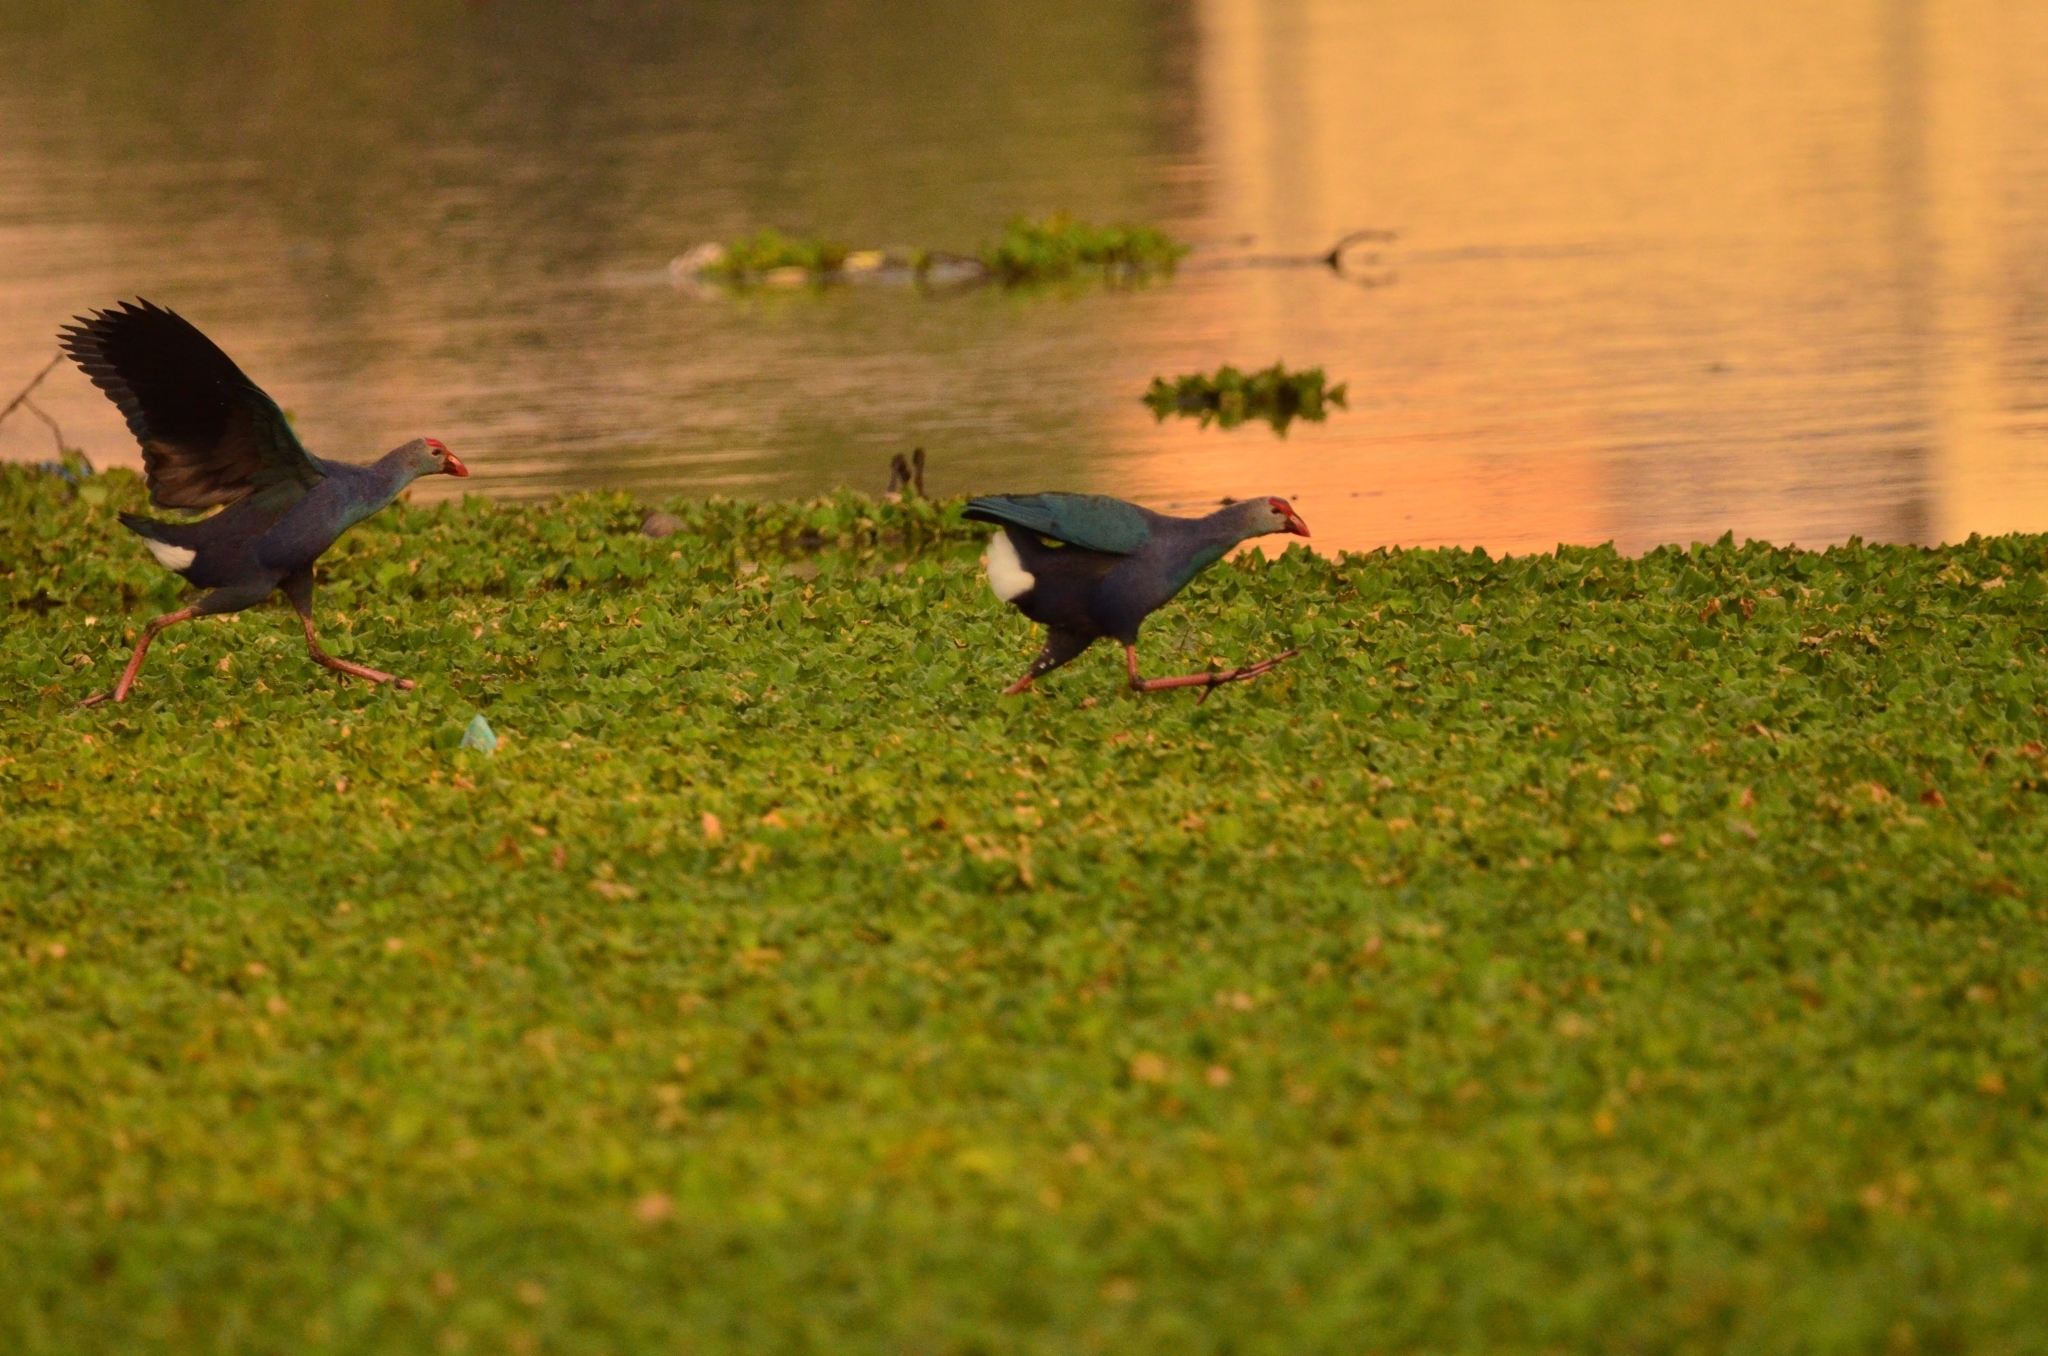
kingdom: Animalia
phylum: Chordata
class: Aves
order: Gruiformes
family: Rallidae
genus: Porphyrio
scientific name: Porphyrio porphyrio
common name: Purple swamphen
